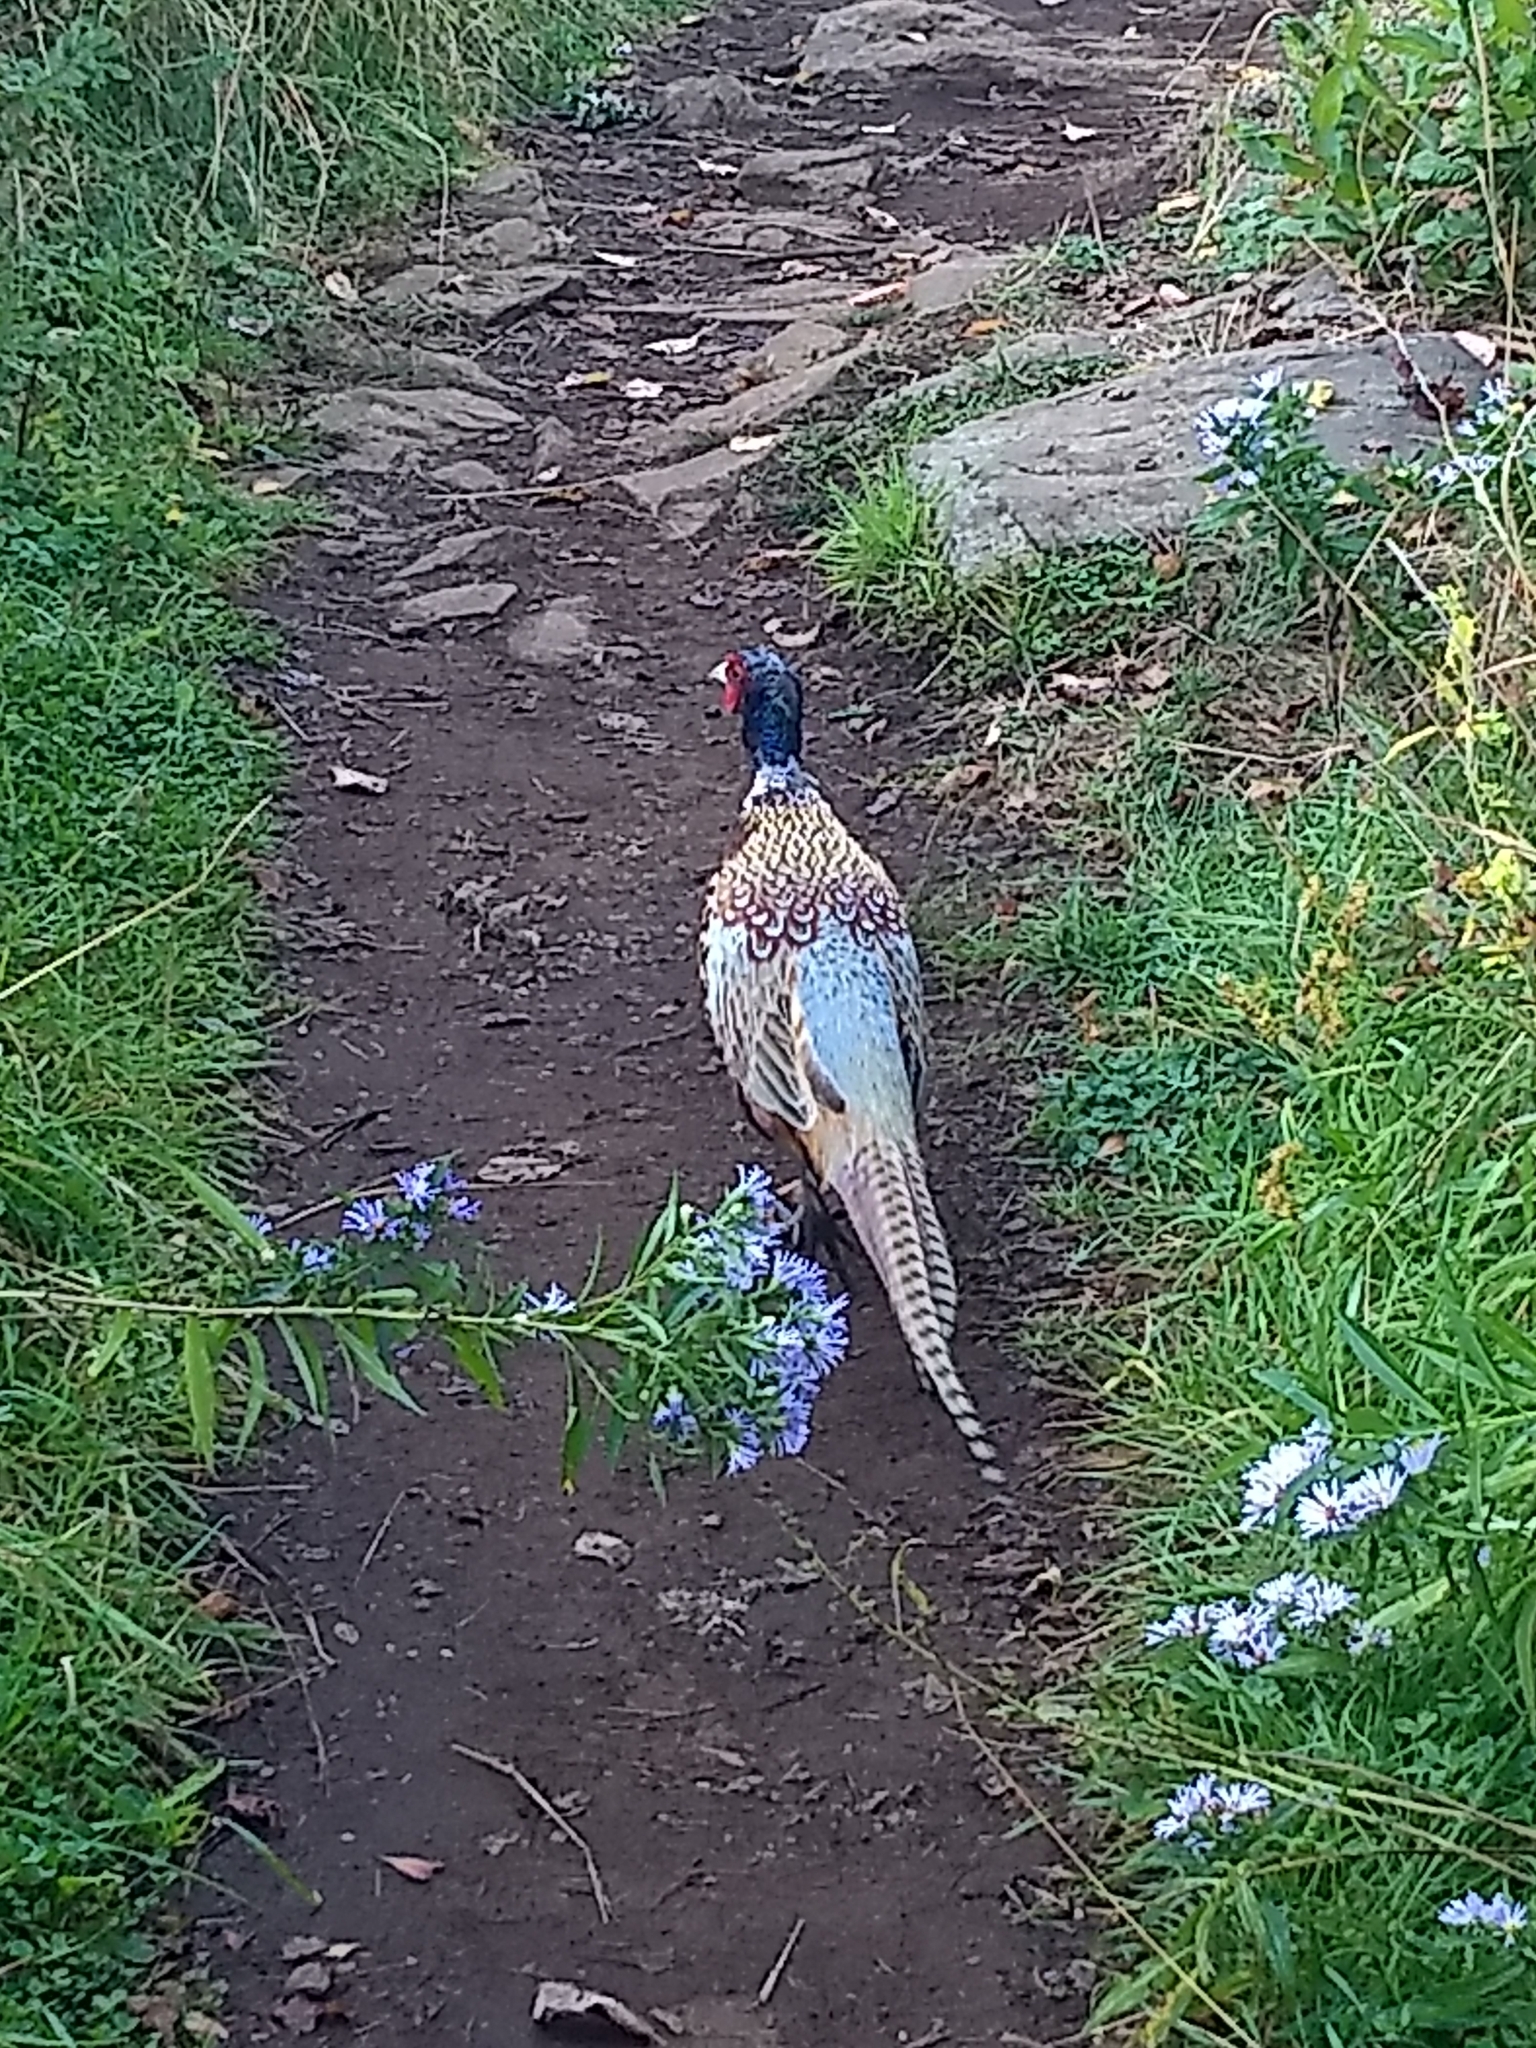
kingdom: Animalia
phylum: Chordata
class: Aves
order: Galliformes
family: Phasianidae
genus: Phasianus
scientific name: Phasianus colchicus
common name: Common pheasant
